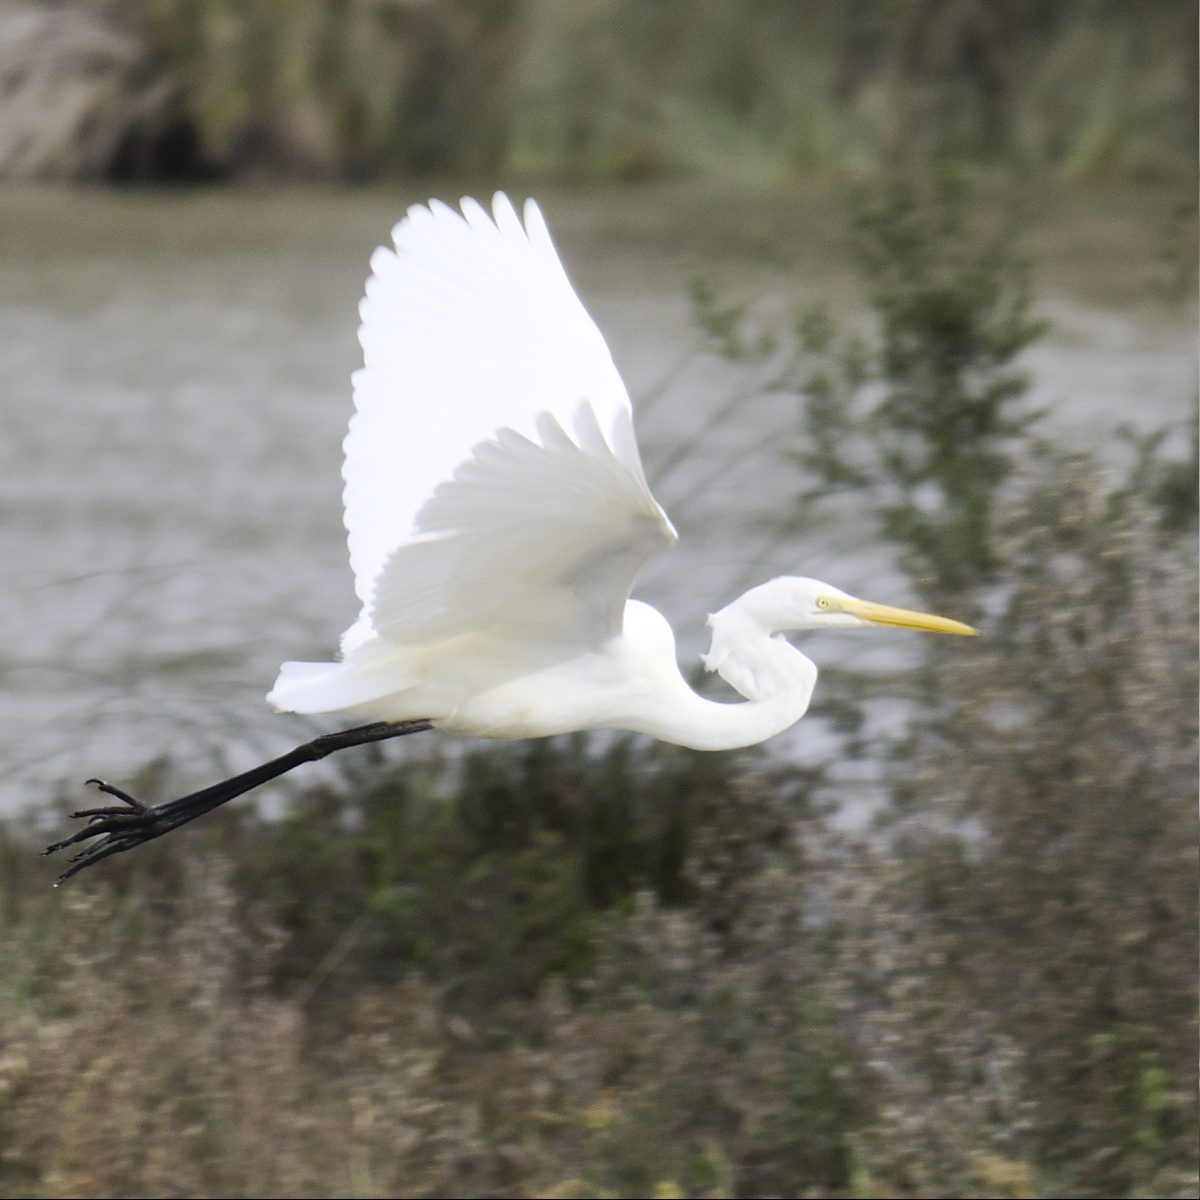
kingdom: Animalia
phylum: Chordata
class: Aves
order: Pelecaniformes
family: Ardeidae
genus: Ardea
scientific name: Ardea alba
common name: Great egret
